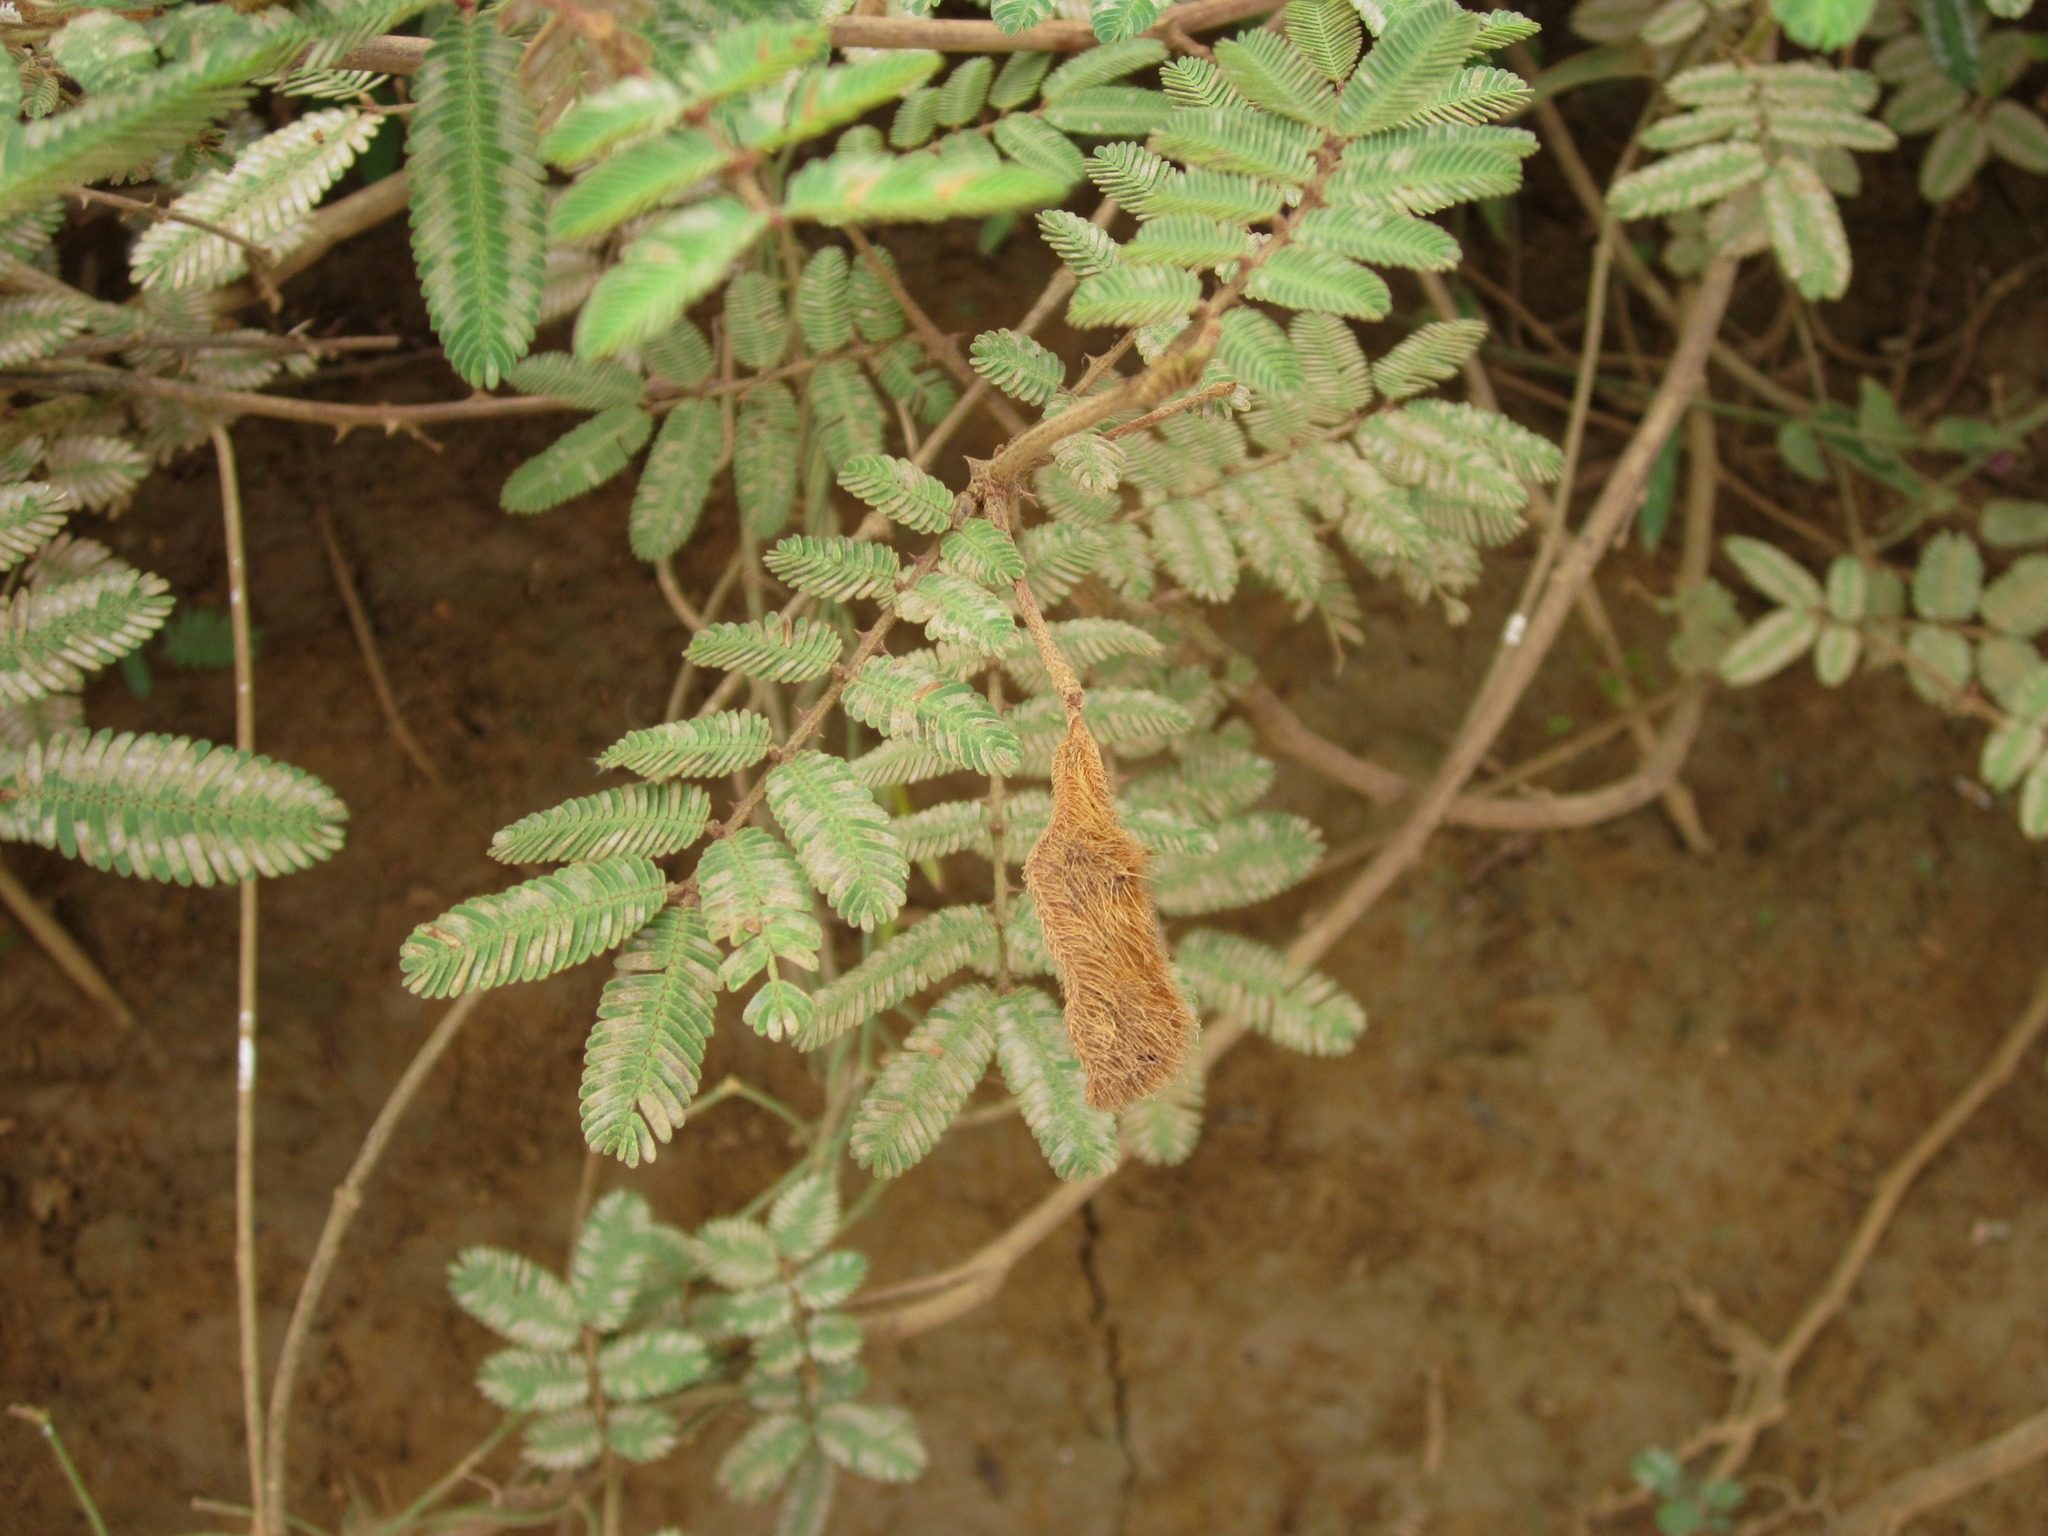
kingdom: Plantae
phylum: Tracheophyta
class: Magnoliopsida
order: Fabales
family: Fabaceae
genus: Mimosa
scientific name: Mimosa pigra
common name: Black mimosa
